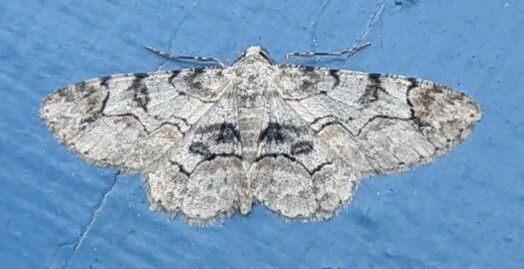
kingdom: Animalia
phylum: Arthropoda
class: Insecta
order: Lepidoptera
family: Geometridae
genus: Iridopsis
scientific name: Iridopsis larvaria
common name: Bent-line gray
